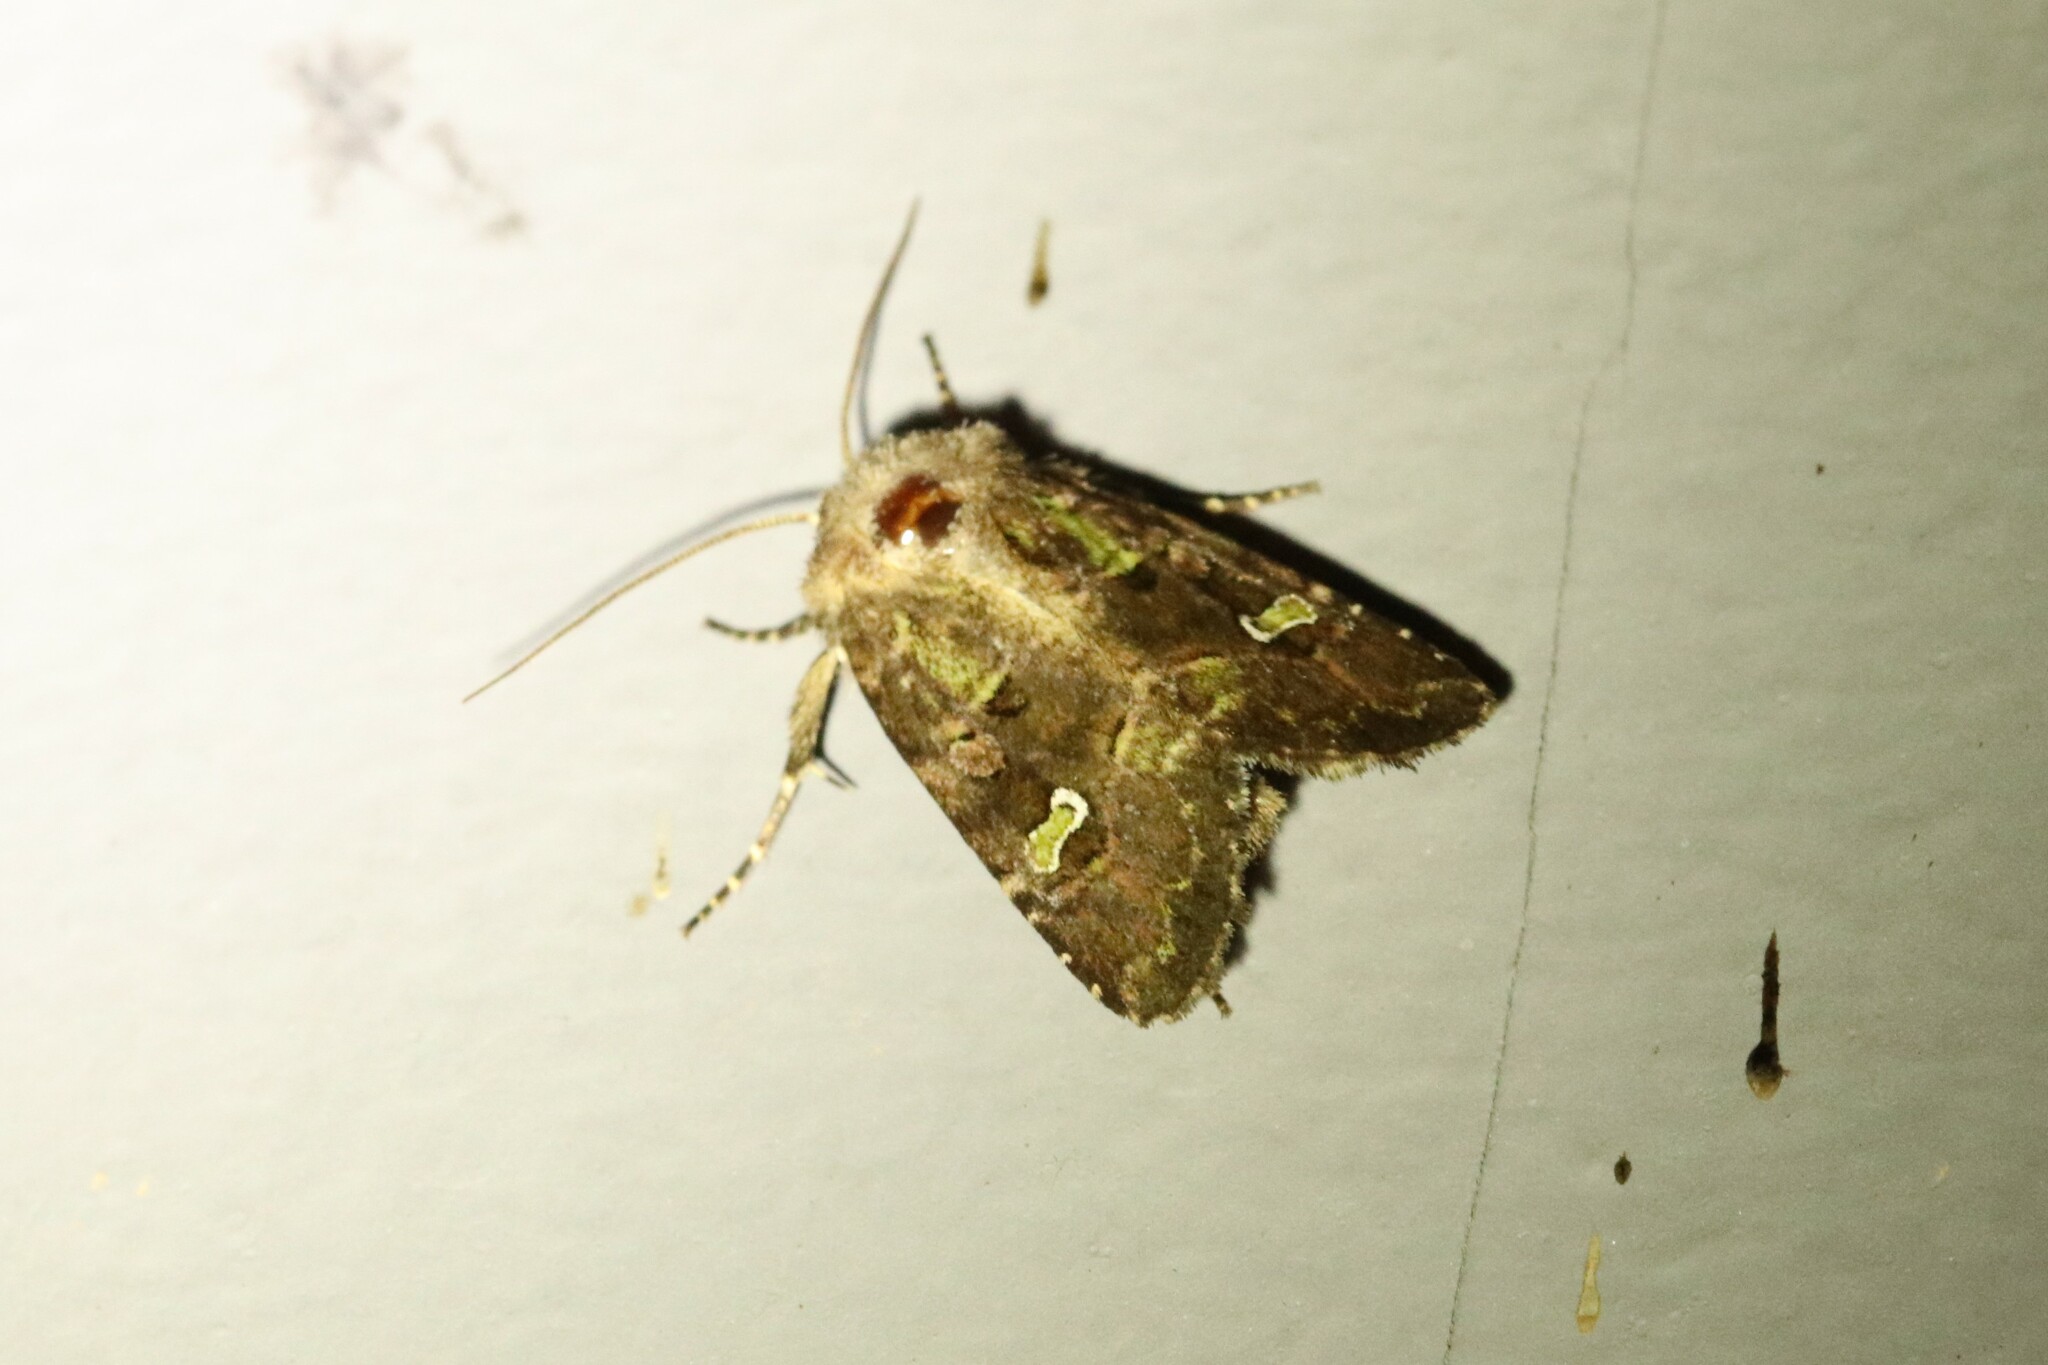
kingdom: Animalia
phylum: Arthropoda
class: Insecta
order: Lepidoptera
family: Noctuidae
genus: Lacinipolia
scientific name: Lacinipolia renigera
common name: Kidney-spotted minor
